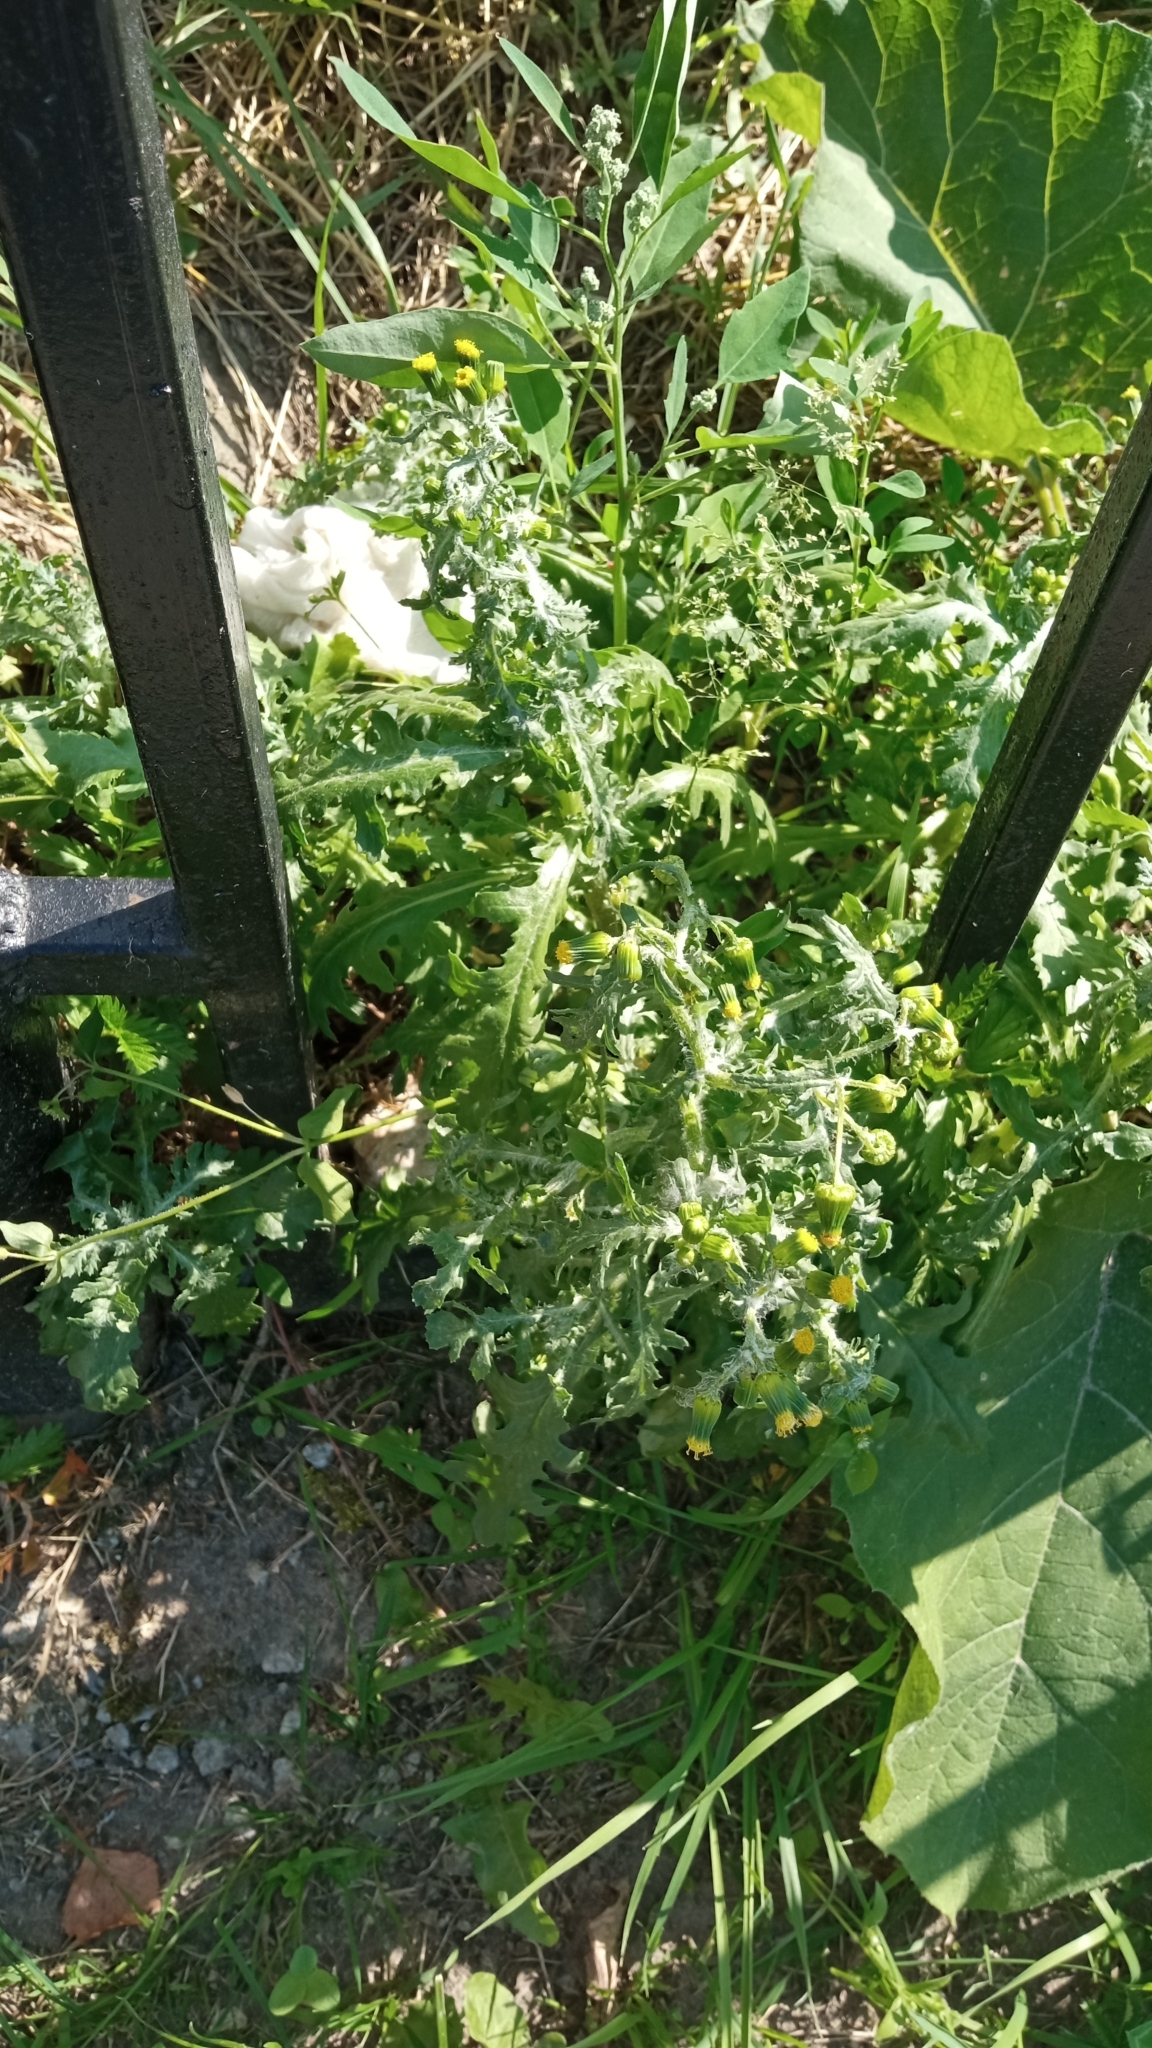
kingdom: Plantae
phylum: Tracheophyta
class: Magnoliopsida
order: Asterales
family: Asteraceae
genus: Senecio
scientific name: Senecio vulgaris
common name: Old-man-in-the-spring
